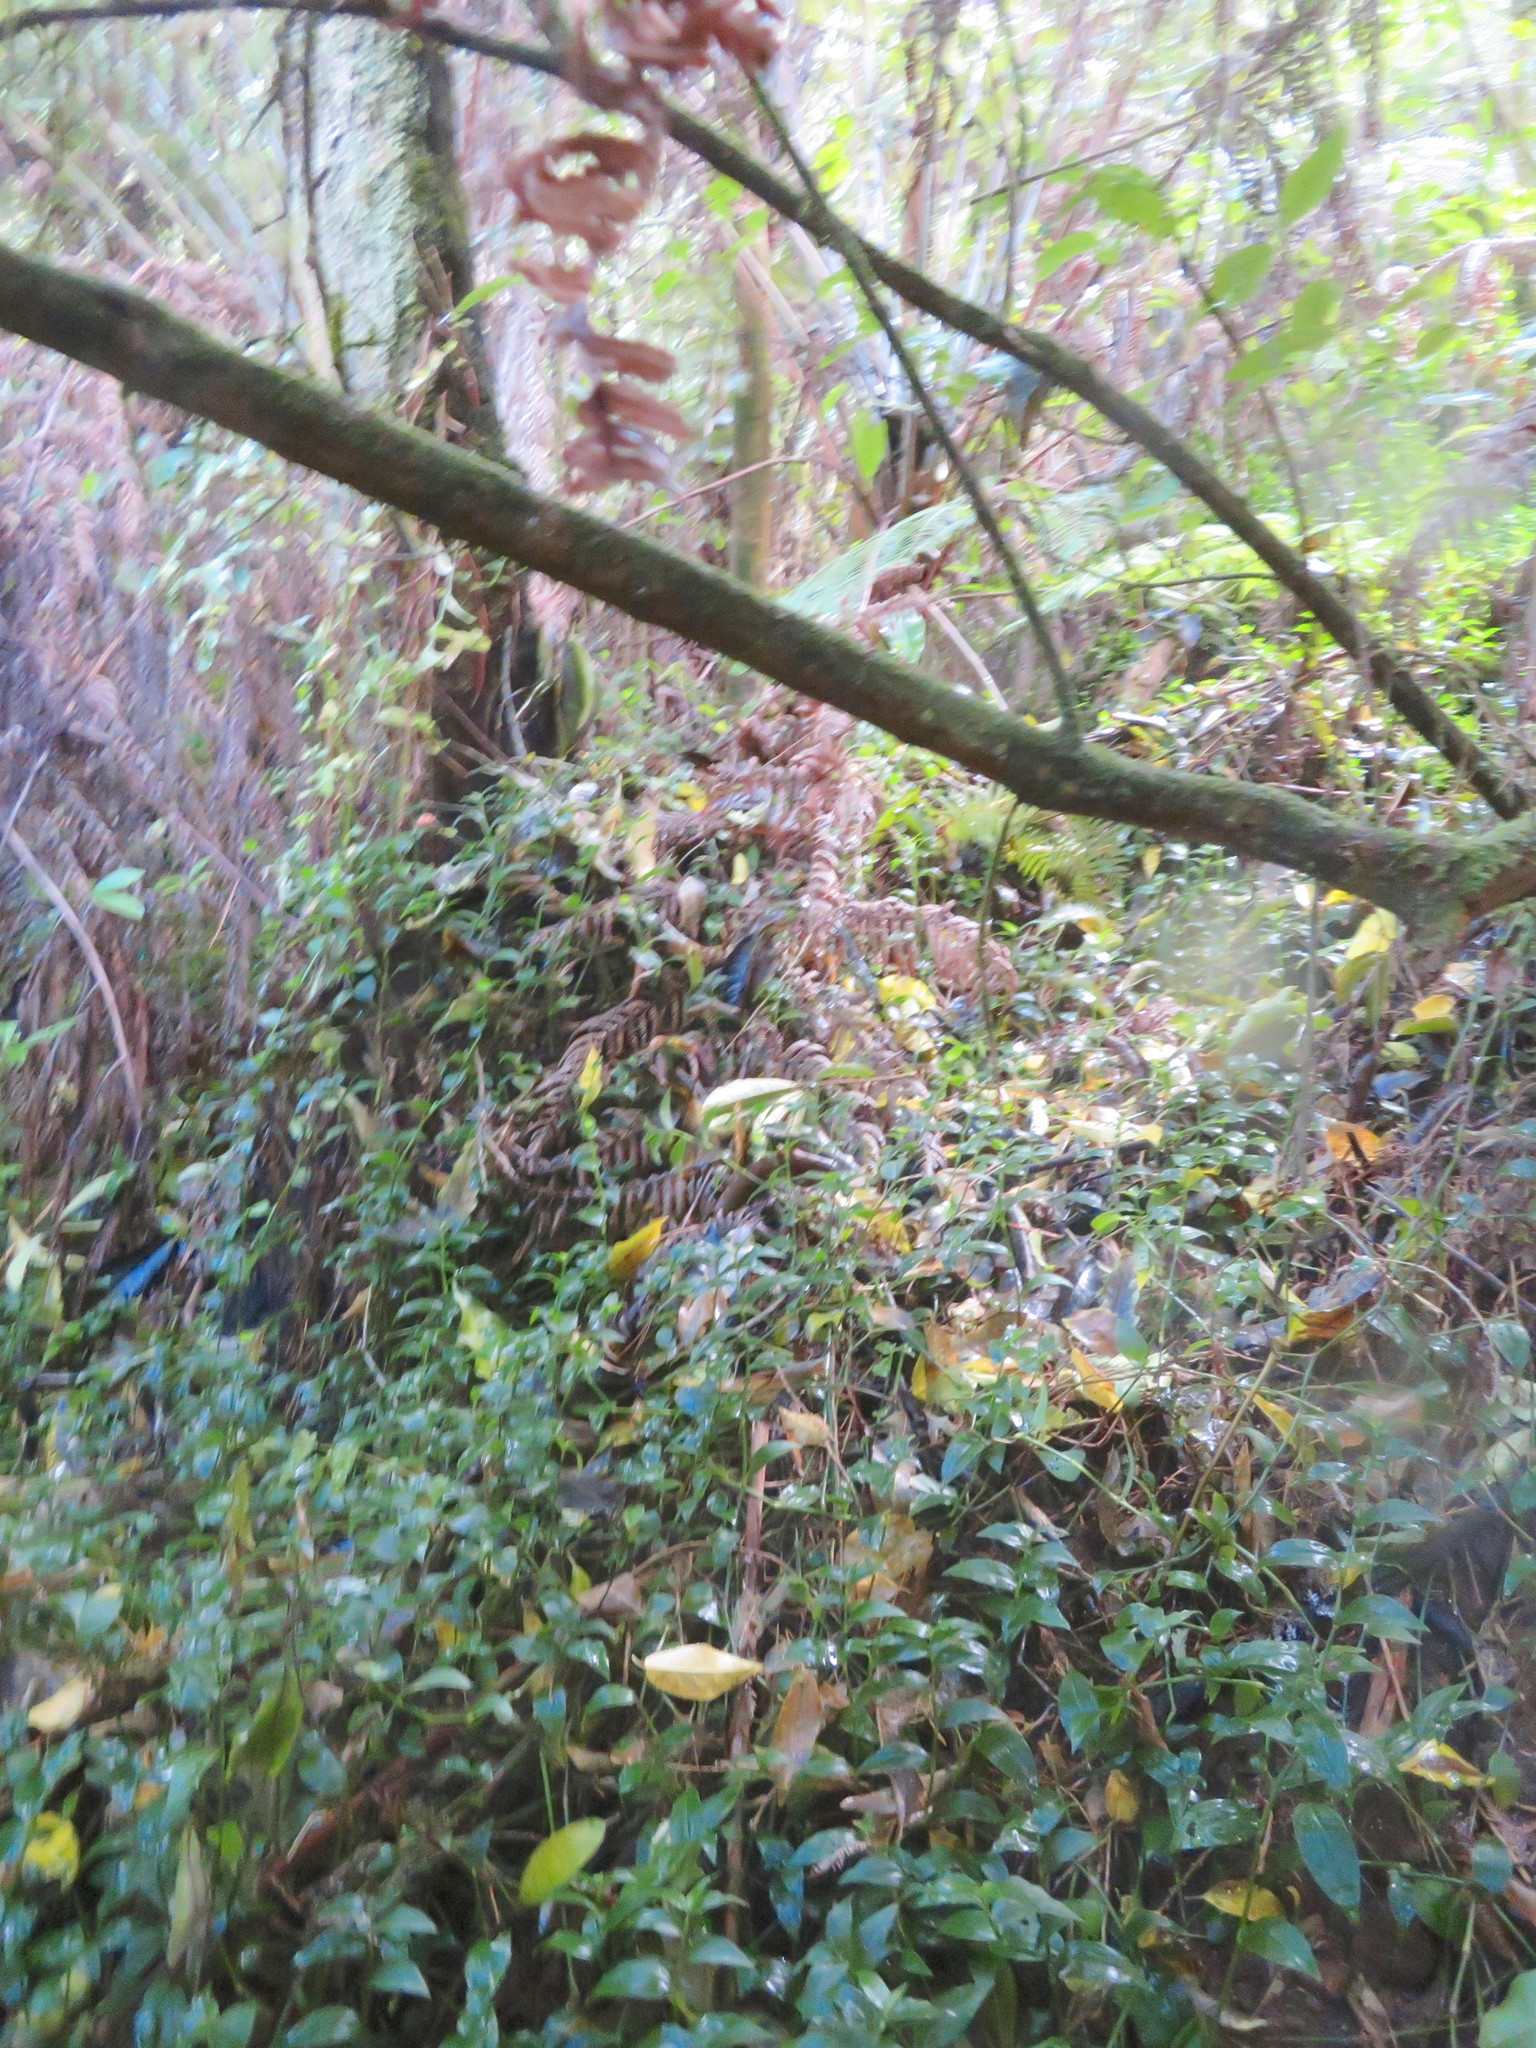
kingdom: Plantae
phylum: Tracheophyta
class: Liliopsida
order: Commelinales
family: Commelinaceae
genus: Tradescantia
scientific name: Tradescantia fluminensis
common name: Wandering-jew
